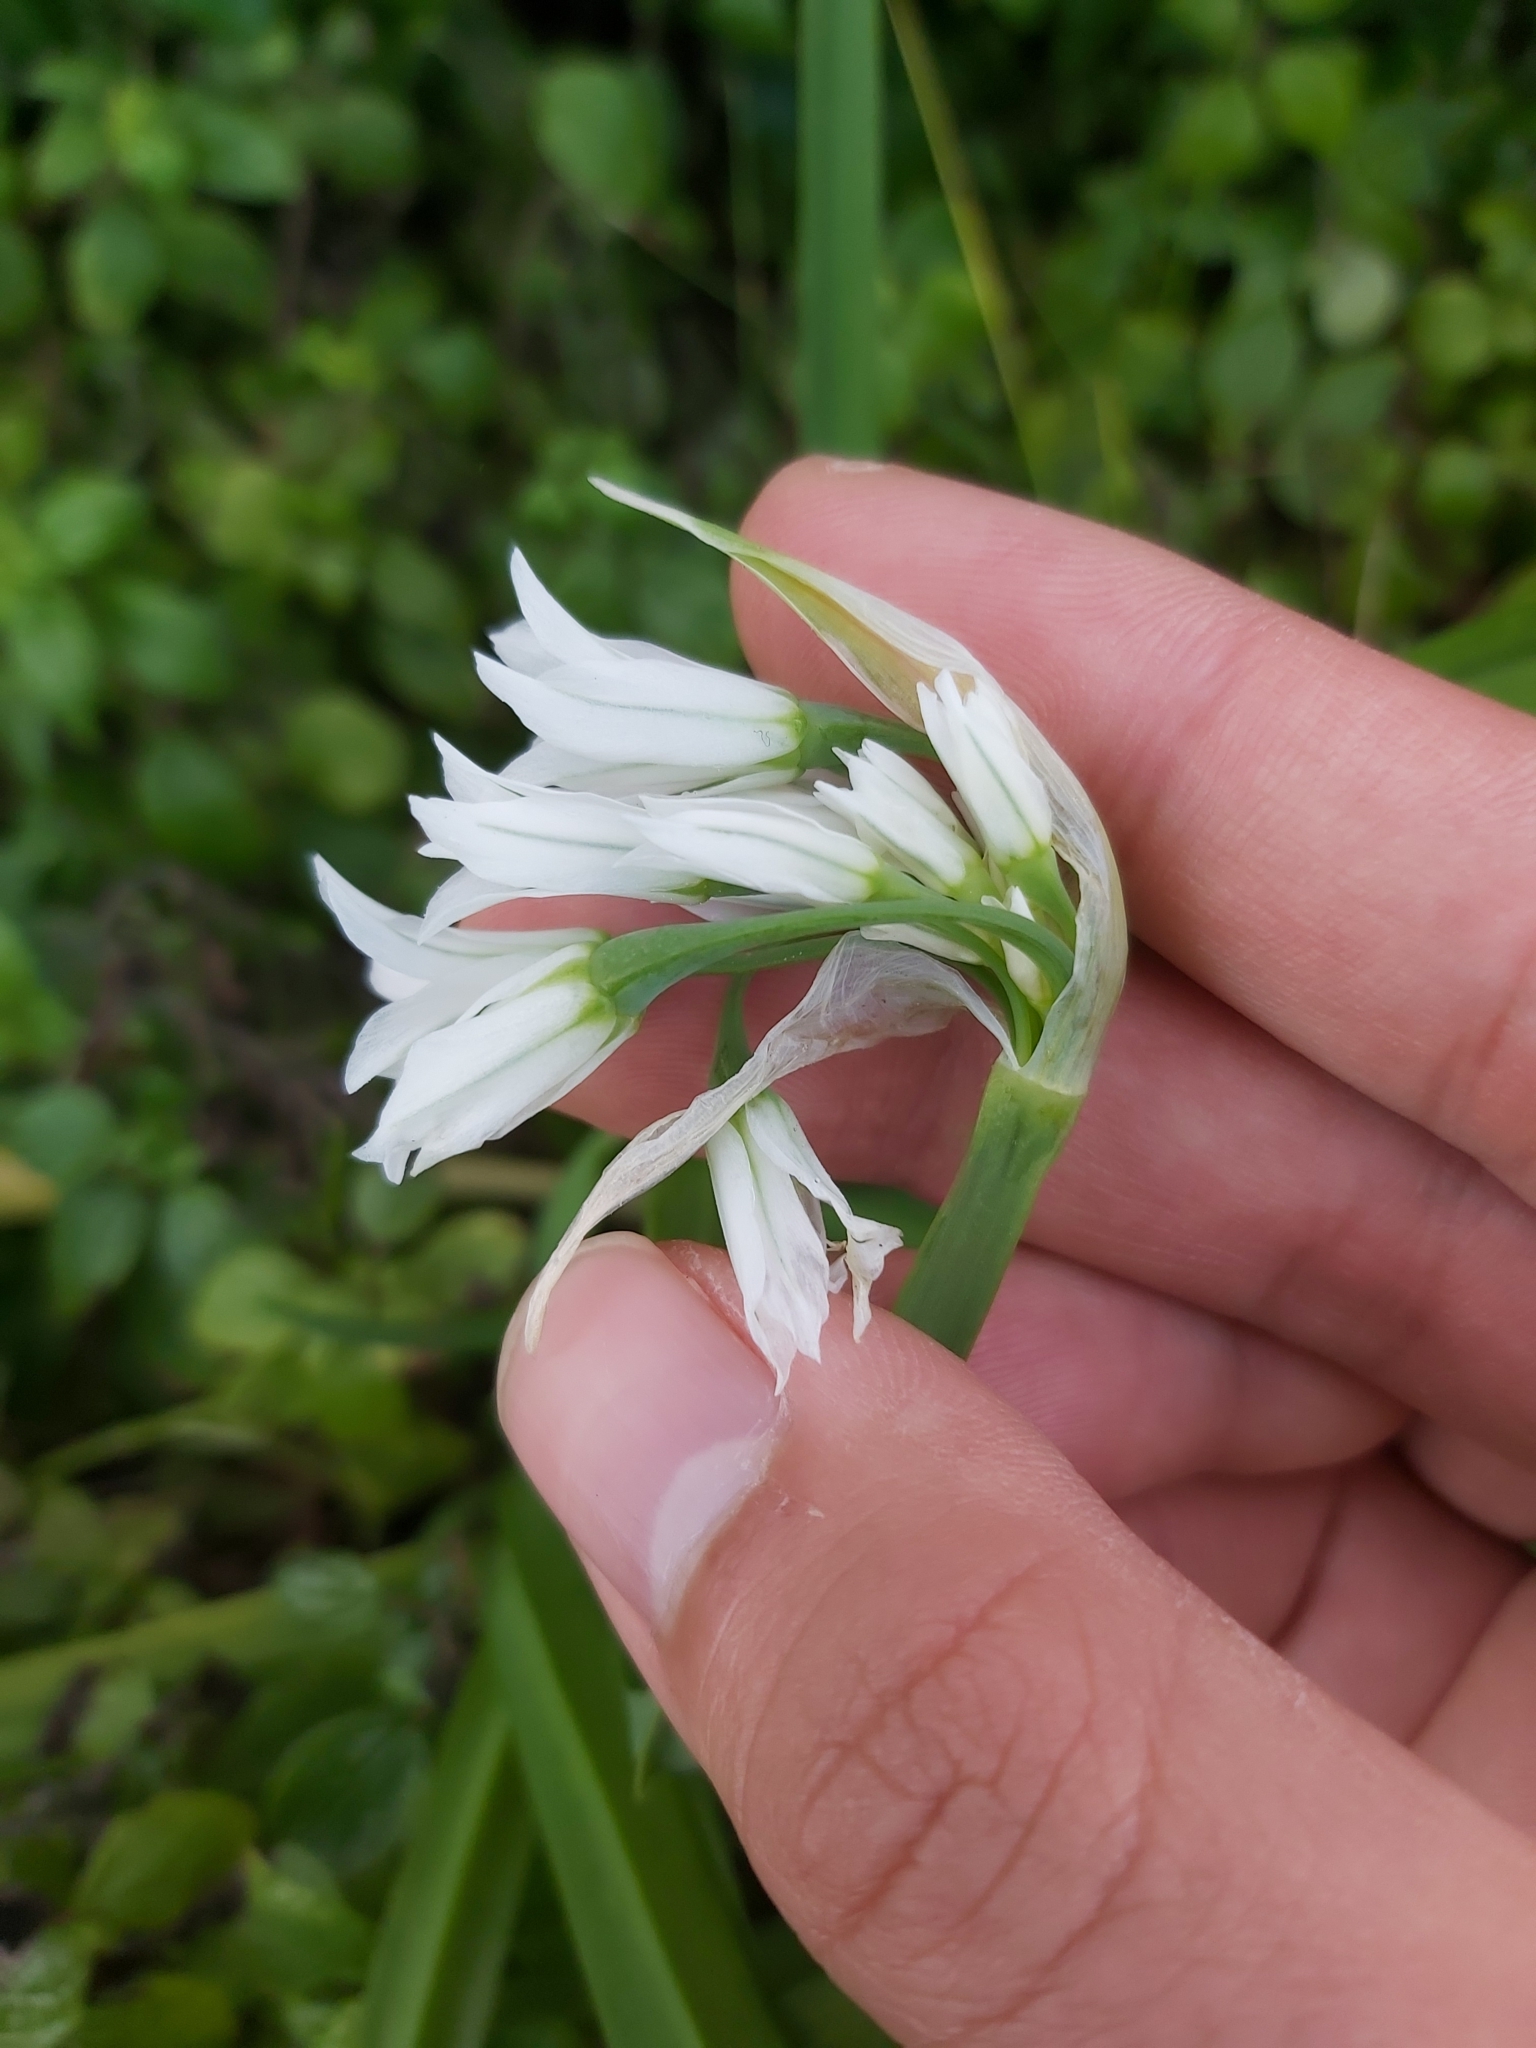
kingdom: Plantae
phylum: Tracheophyta
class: Liliopsida
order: Asparagales
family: Amaryllidaceae
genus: Allium
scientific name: Allium triquetrum
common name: Three-cornered garlic
